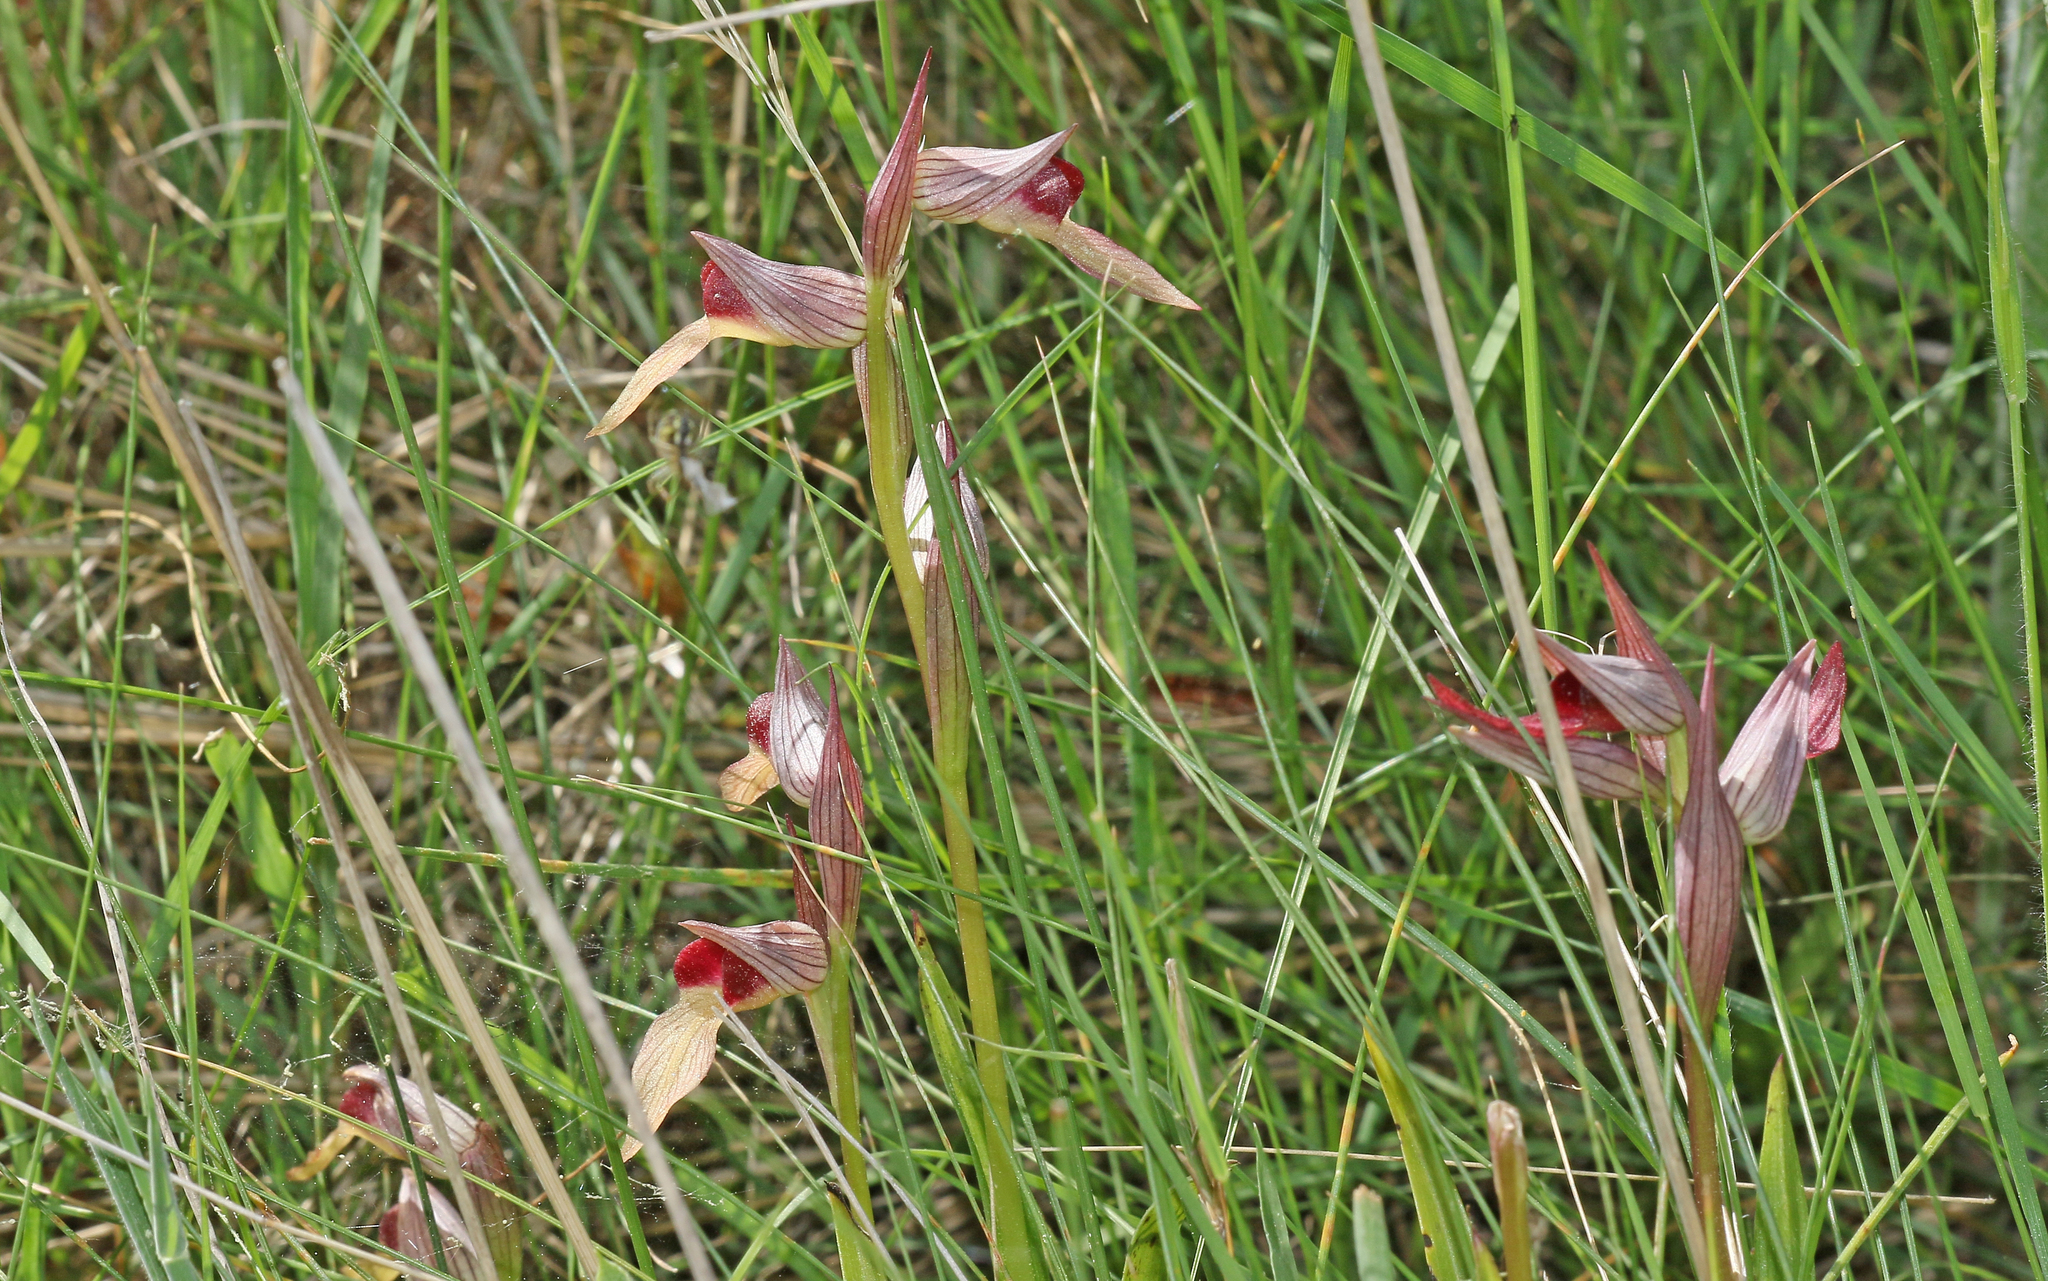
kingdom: Plantae
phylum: Tracheophyta
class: Liliopsida
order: Asparagales
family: Orchidaceae
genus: Serapias
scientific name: Serapias lingua
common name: Tongue-orchid
